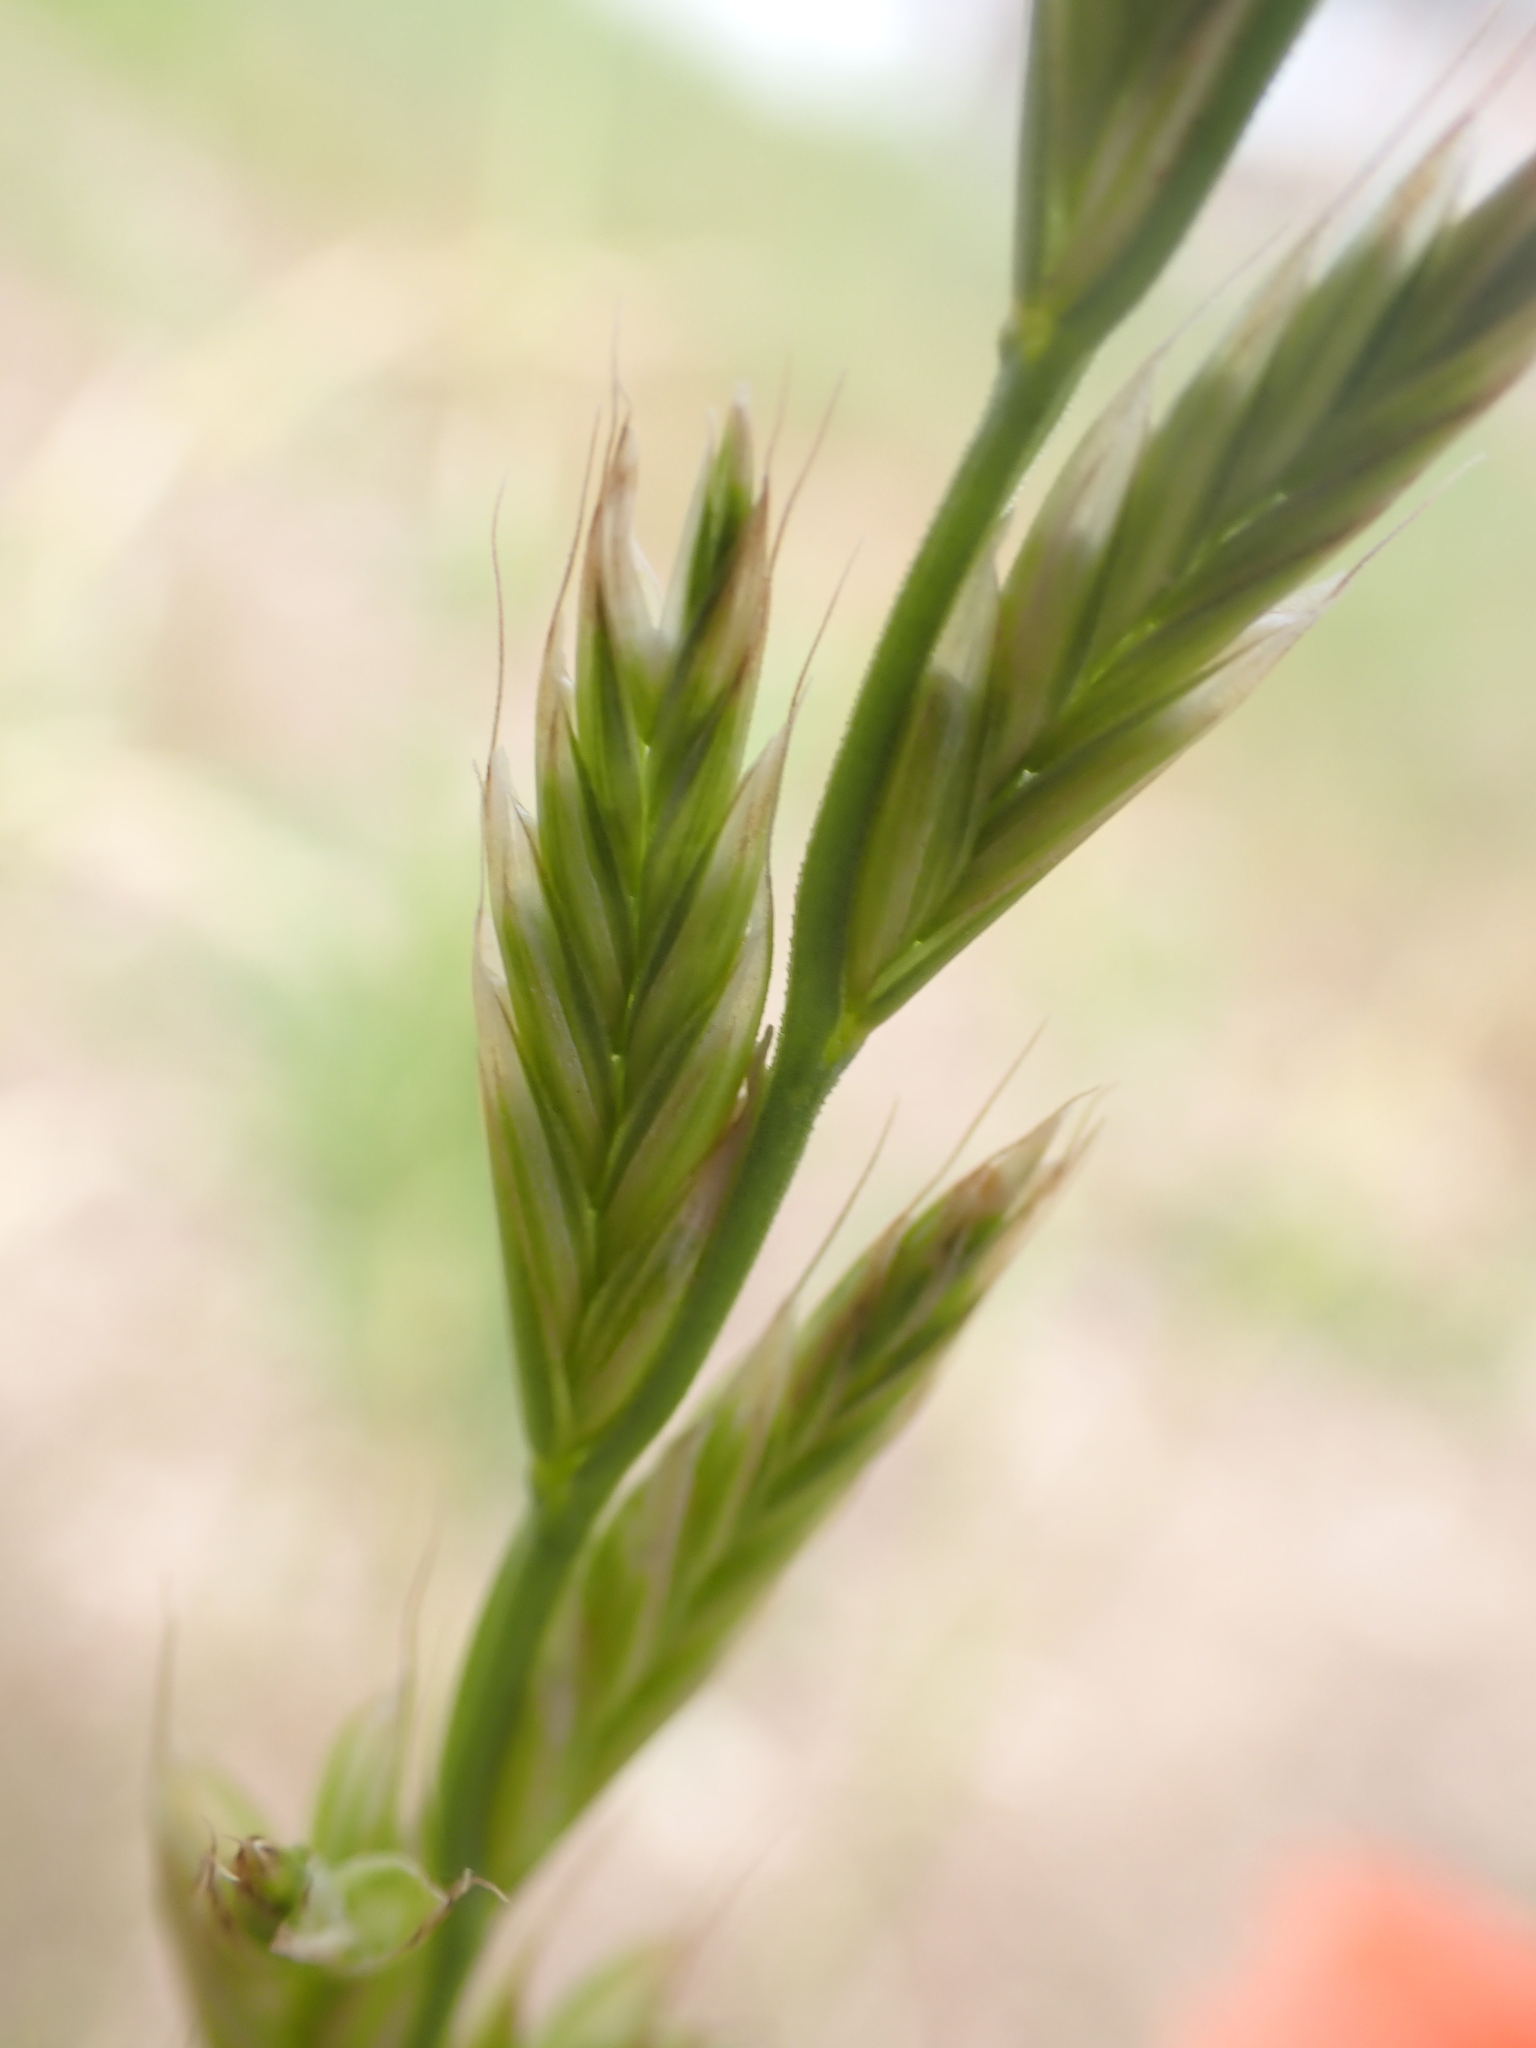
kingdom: Plantae
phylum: Tracheophyta
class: Liliopsida
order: Poales
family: Poaceae
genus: Lolium
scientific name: Lolium multiflorum
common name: Annual ryegrass
